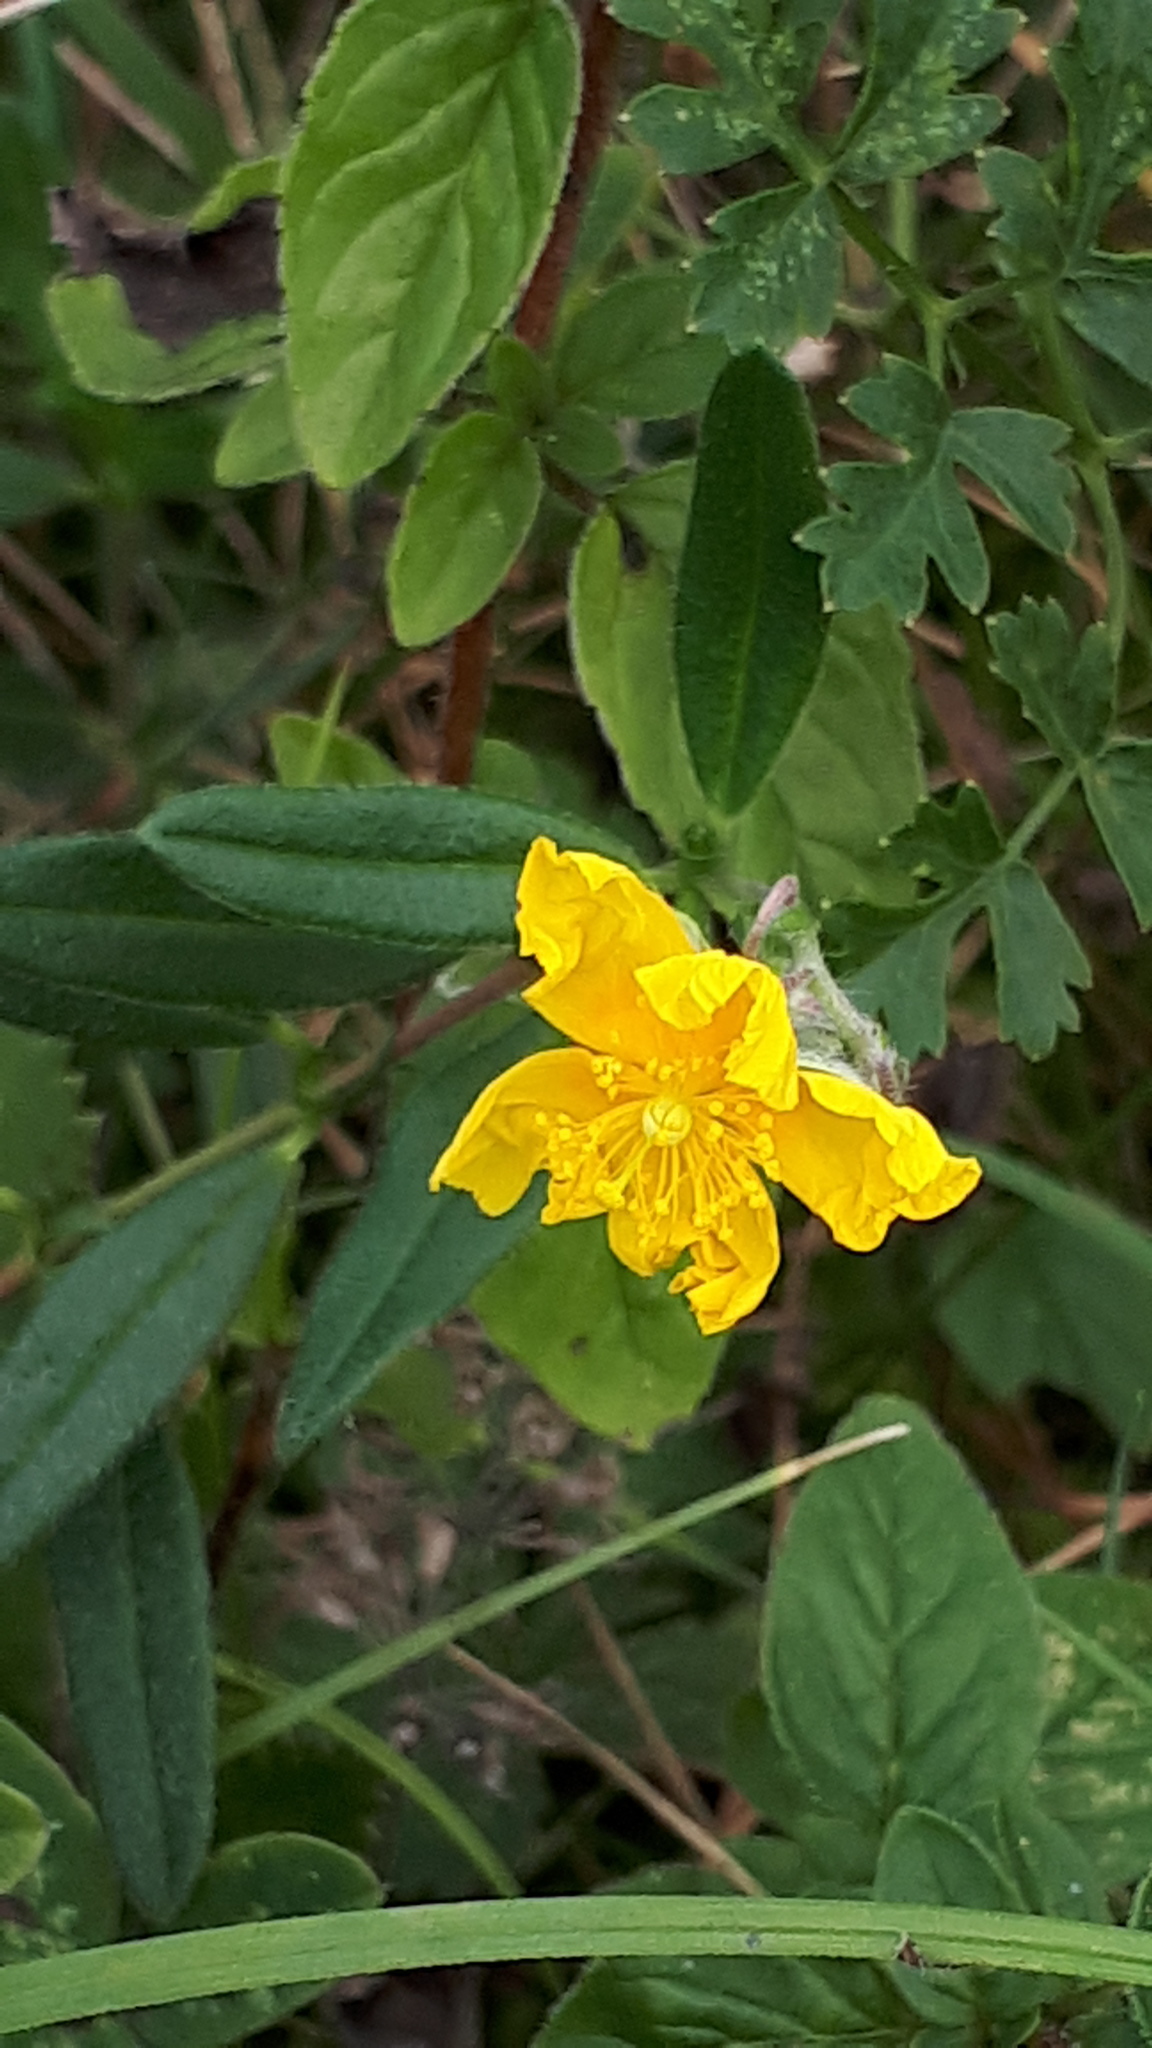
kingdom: Plantae
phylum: Tracheophyta
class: Magnoliopsida
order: Malvales
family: Cistaceae
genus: Helianthemum
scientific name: Helianthemum nummularium
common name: Common rock-rose
